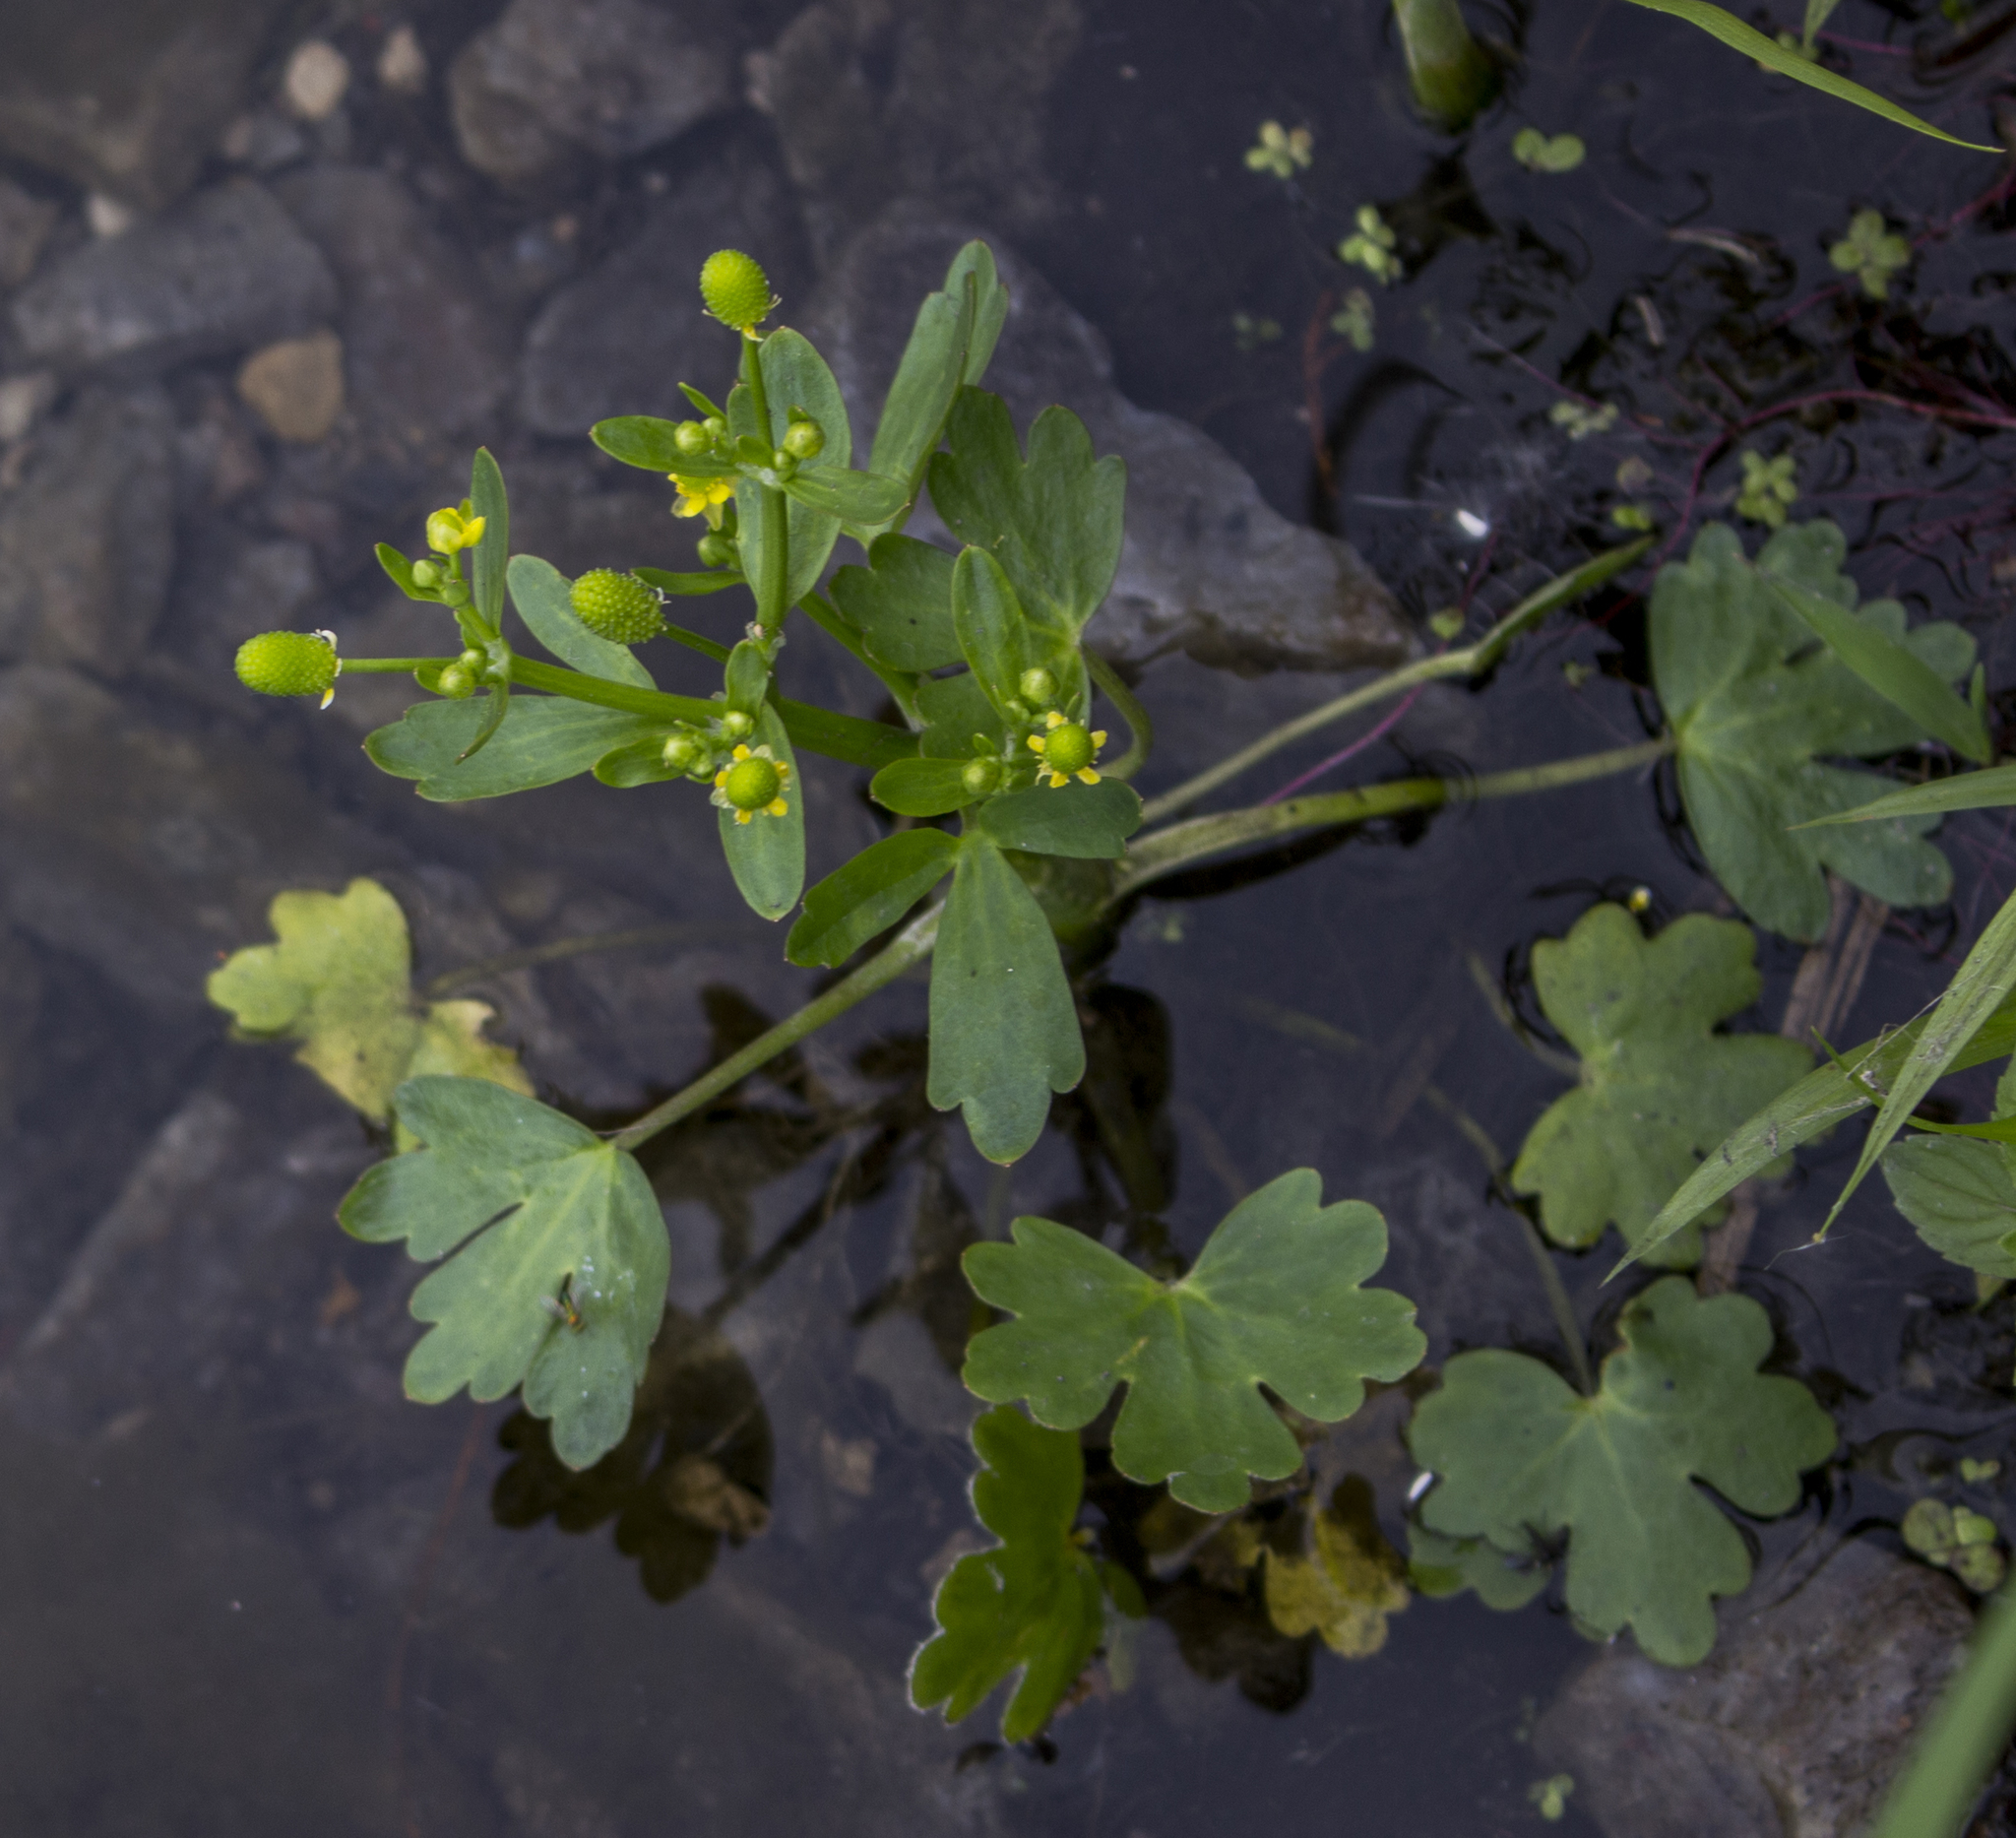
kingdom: Plantae
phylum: Tracheophyta
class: Magnoliopsida
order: Ranunculales
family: Ranunculaceae
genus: Ranunculus
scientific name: Ranunculus sceleratus
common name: Celery-leaved buttercup
